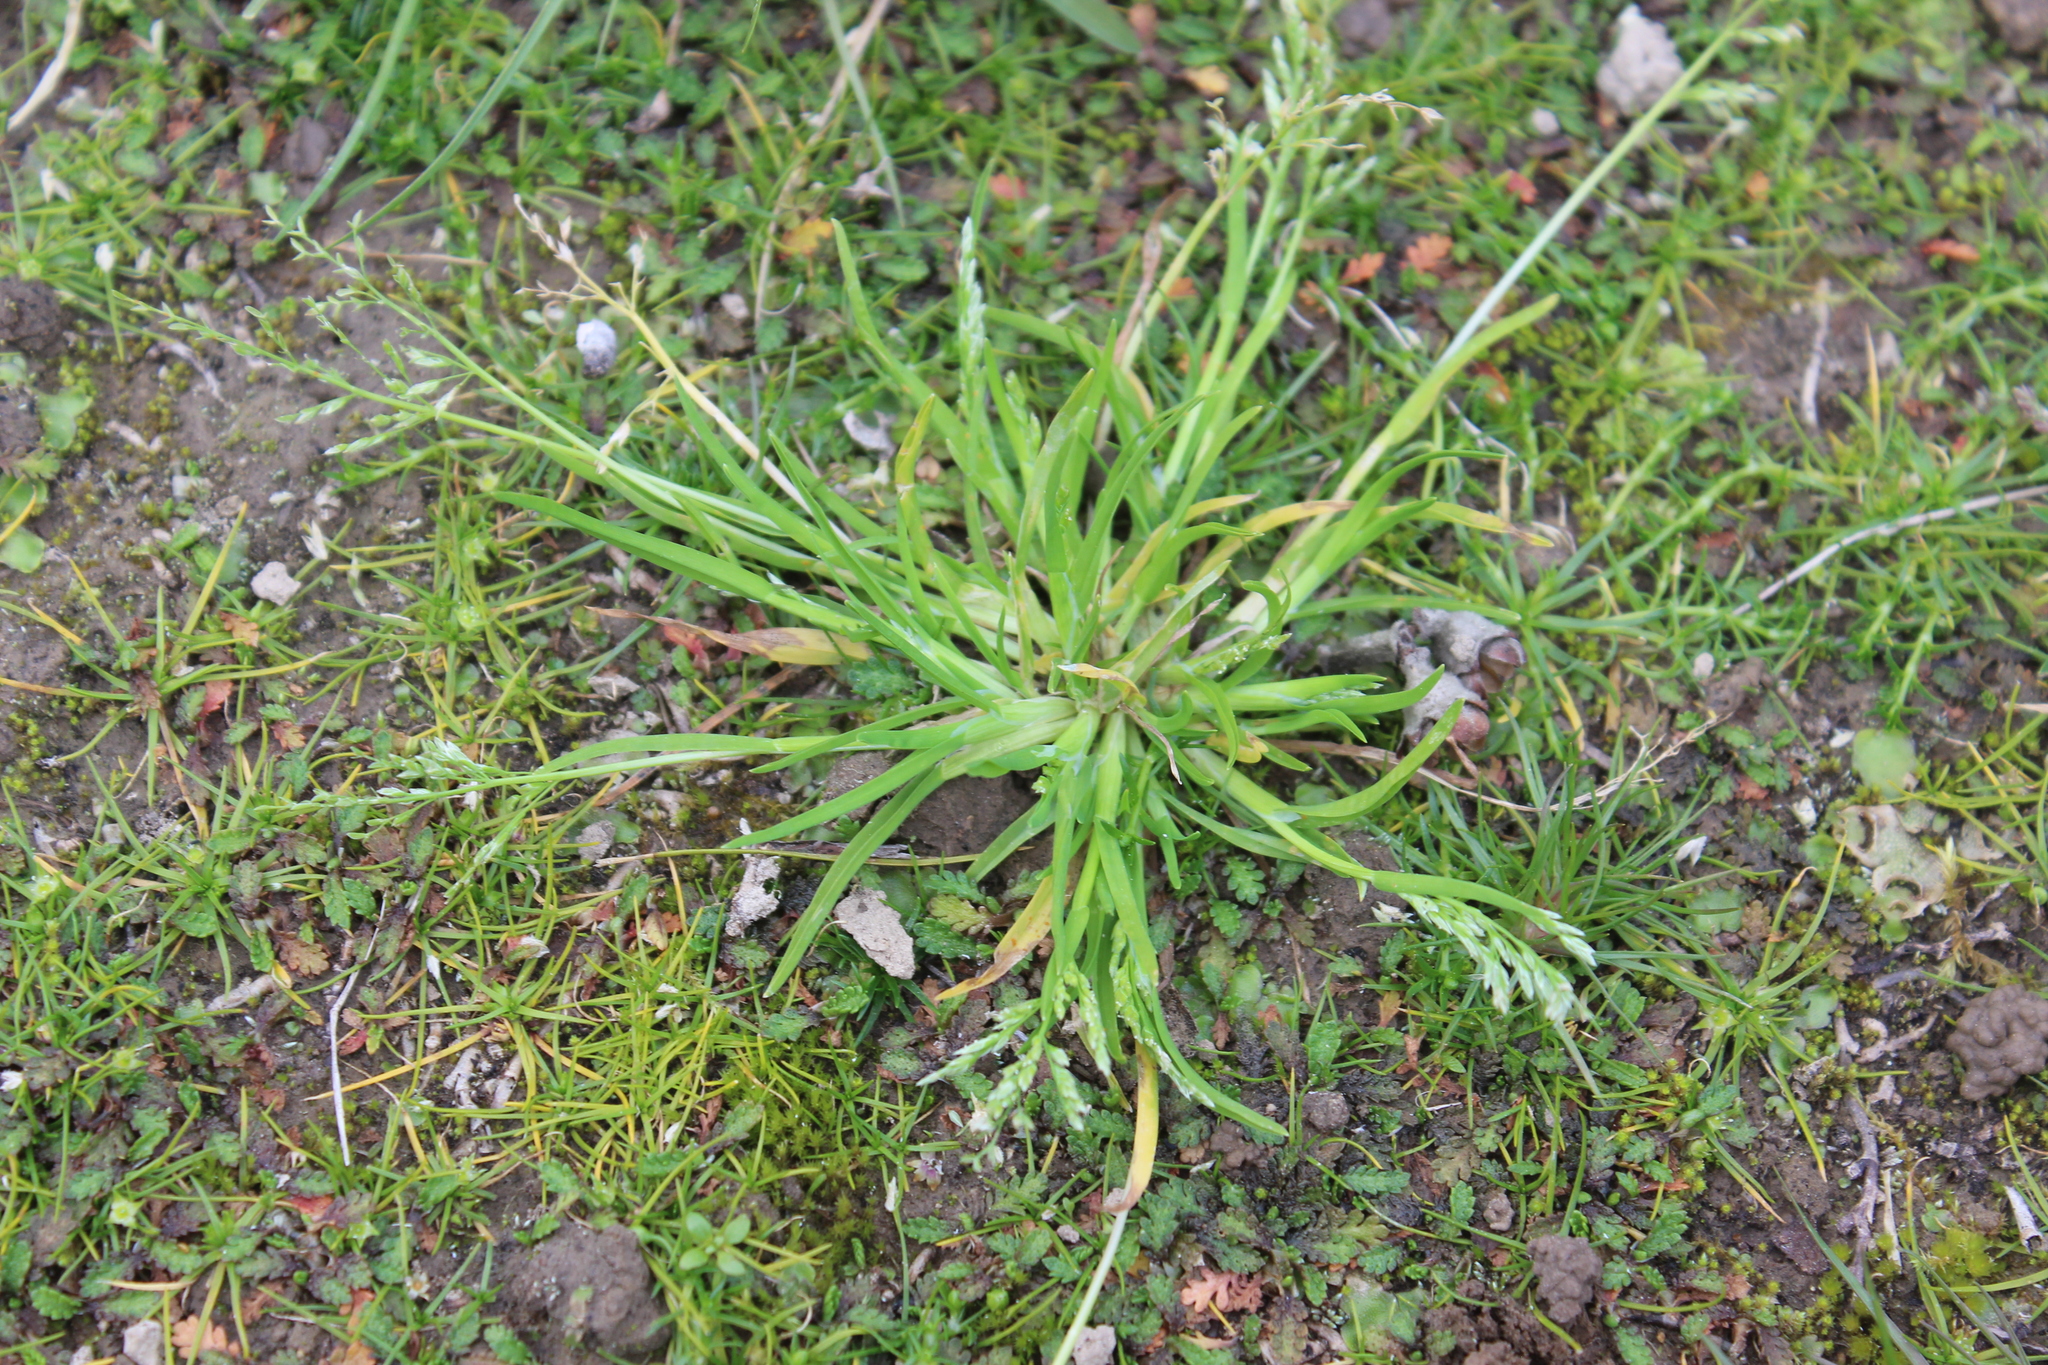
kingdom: Plantae
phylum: Tracheophyta
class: Liliopsida
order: Poales
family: Poaceae
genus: Poa
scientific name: Poa annua
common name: Annual bluegrass
